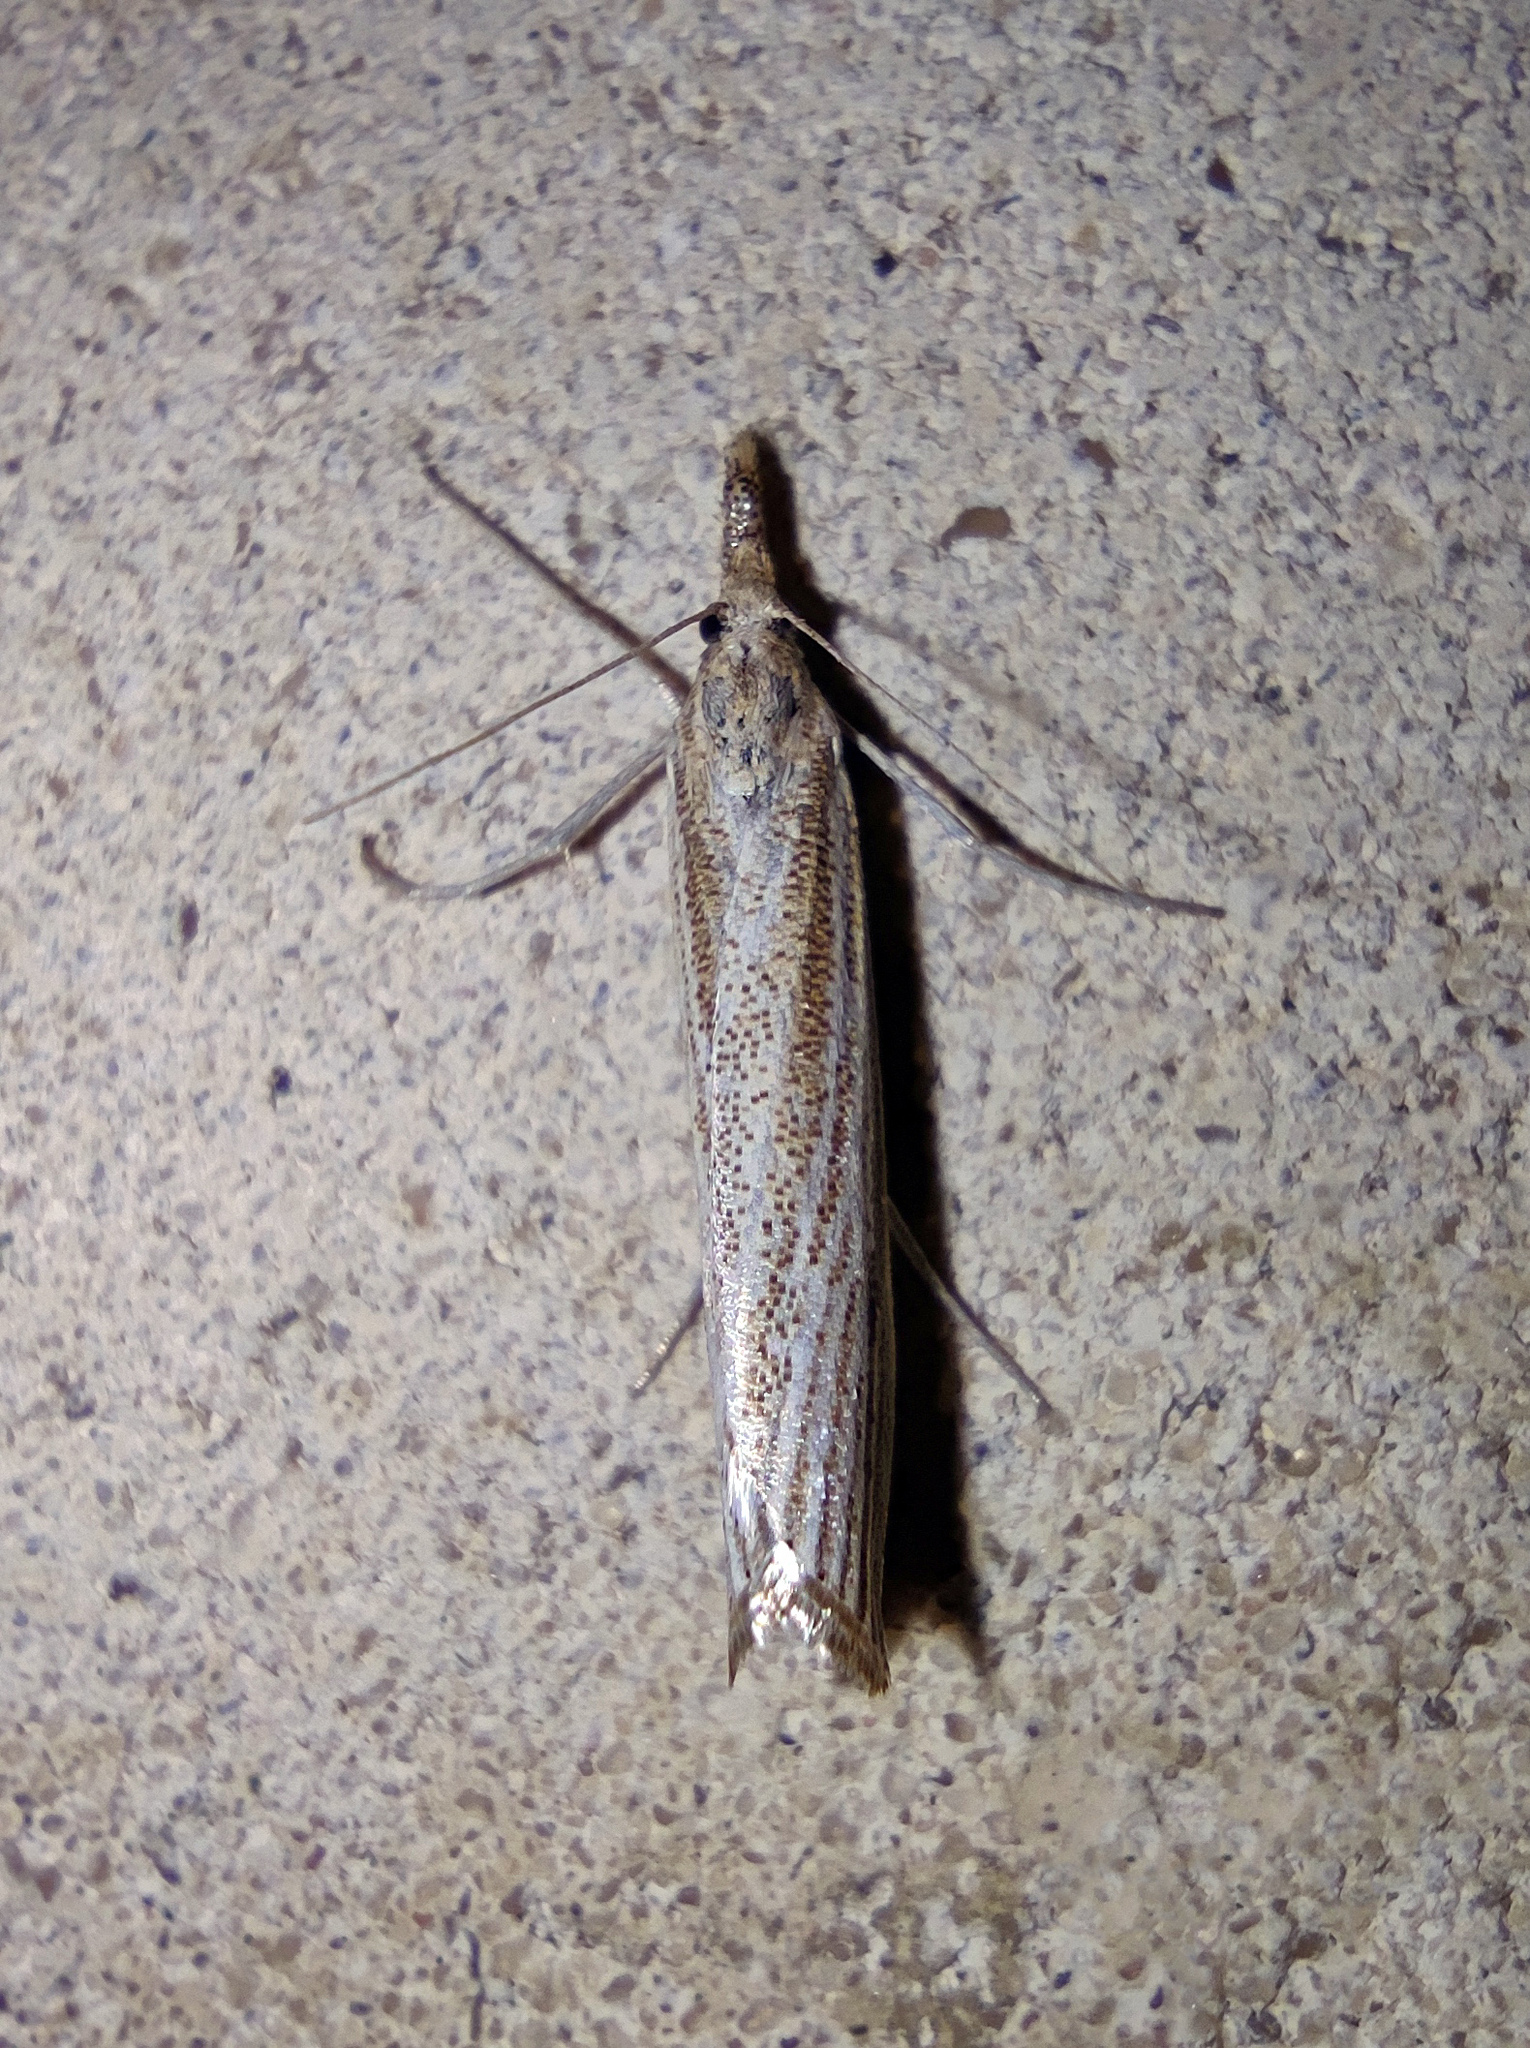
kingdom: Animalia
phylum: Arthropoda
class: Insecta
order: Lepidoptera
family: Crambidae
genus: Agriphila
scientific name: Agriphila poliellus
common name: Grey grass-veneer
